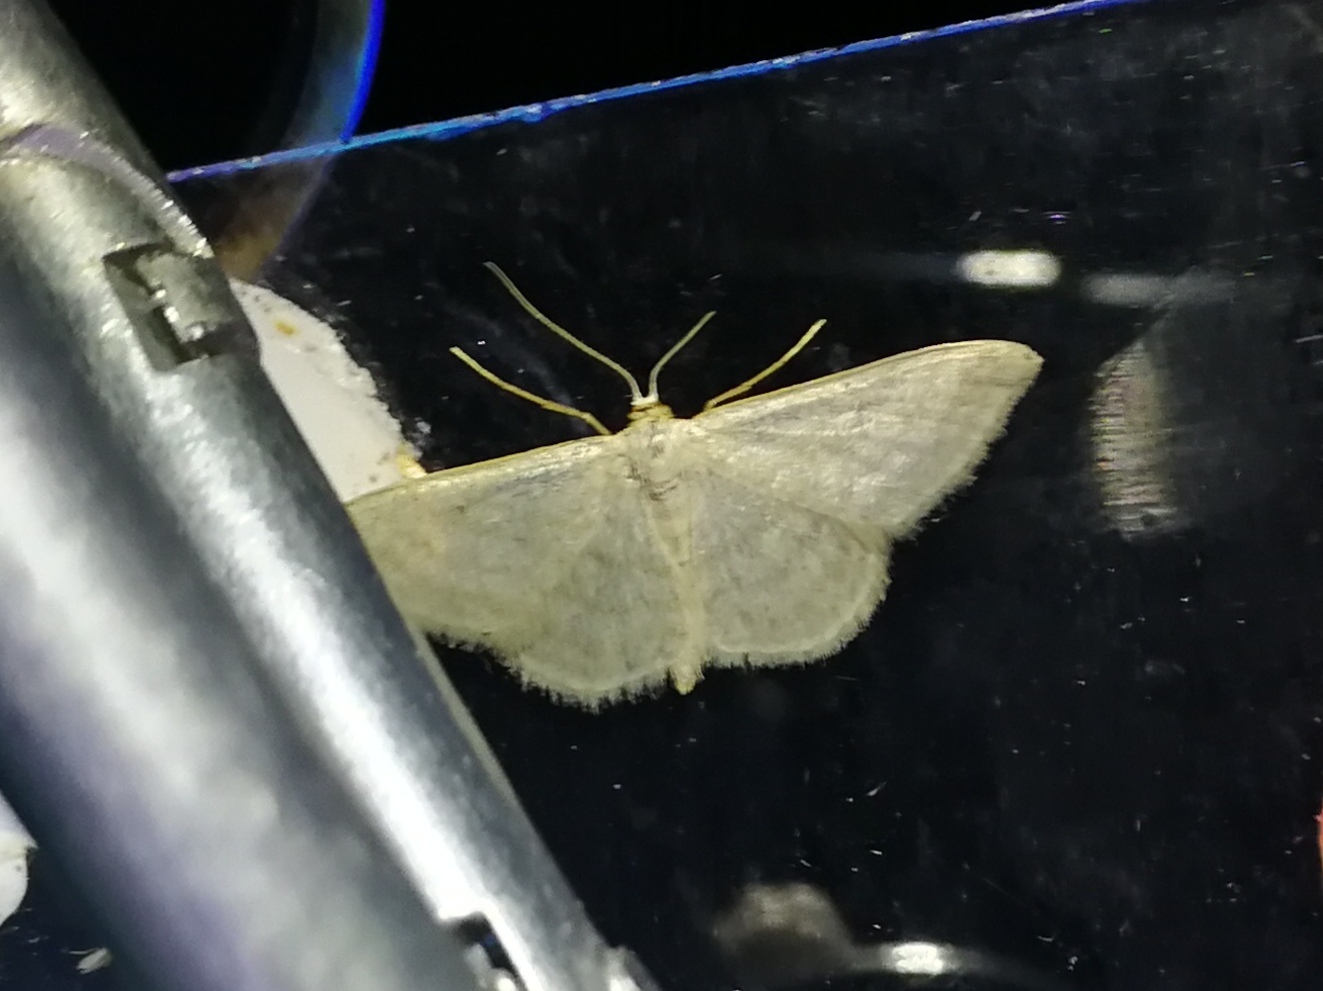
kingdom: Animalia
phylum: Arthropoda
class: Insecta
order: Lepidoptera
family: Geometridae
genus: Idaea
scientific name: Idaea subsericeata
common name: Satin wave
